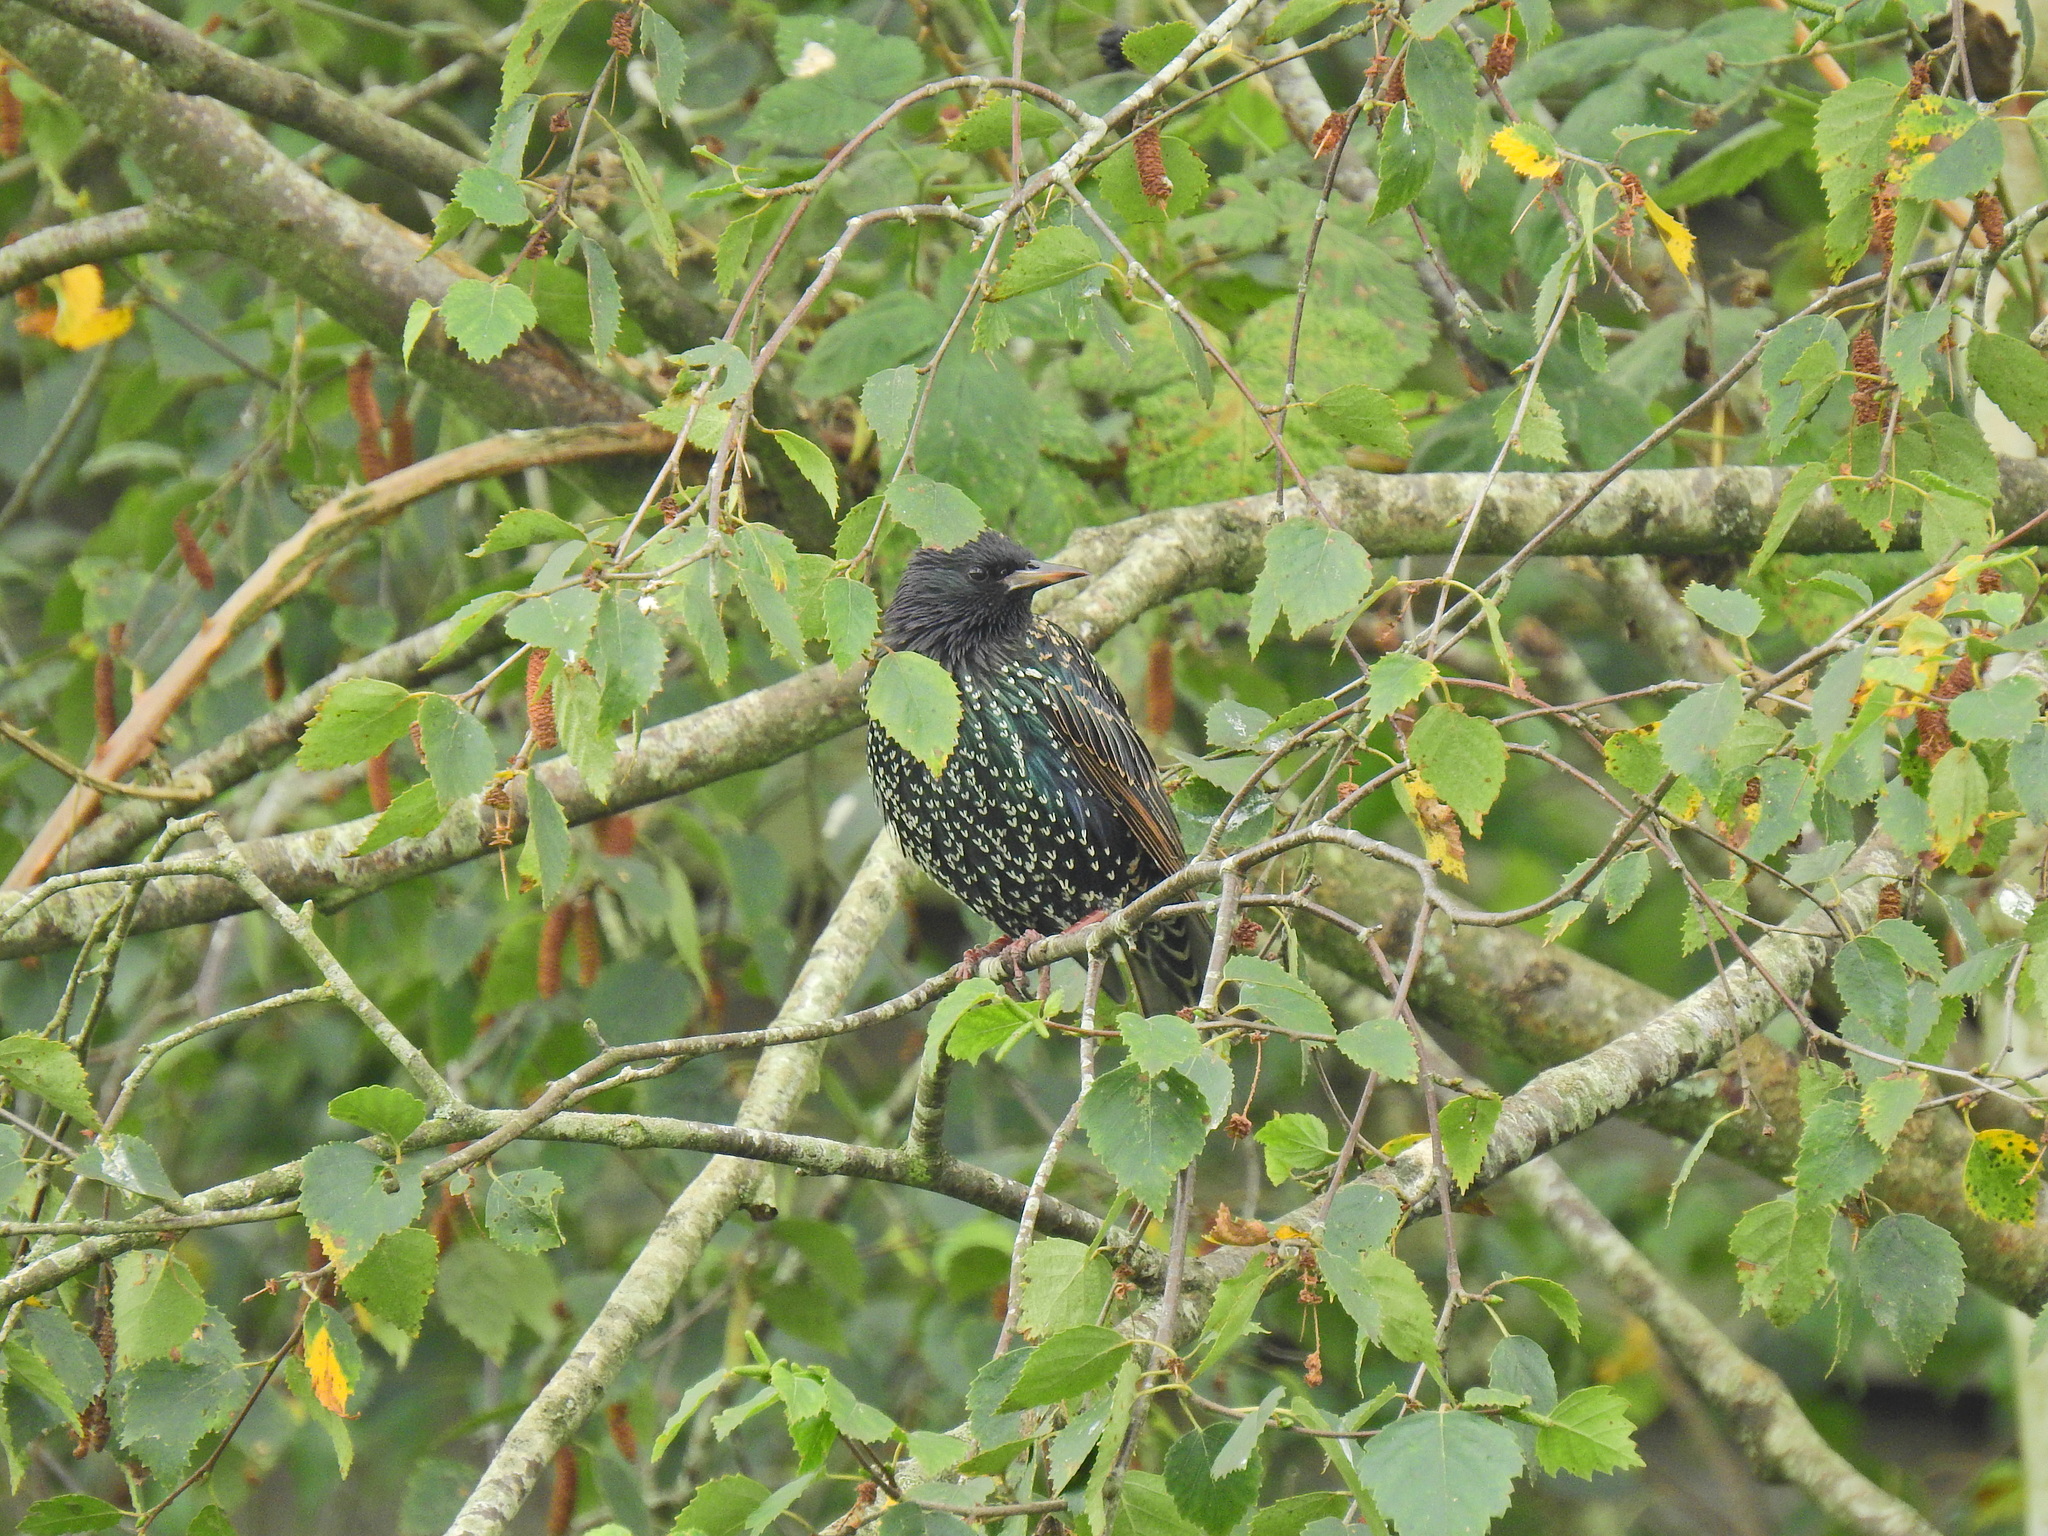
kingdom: Animalia
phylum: Chordata
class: Aves
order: Passeriformes
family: Sturnidae
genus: Sturnus
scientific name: Sturnus vulgaris
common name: Common starling
